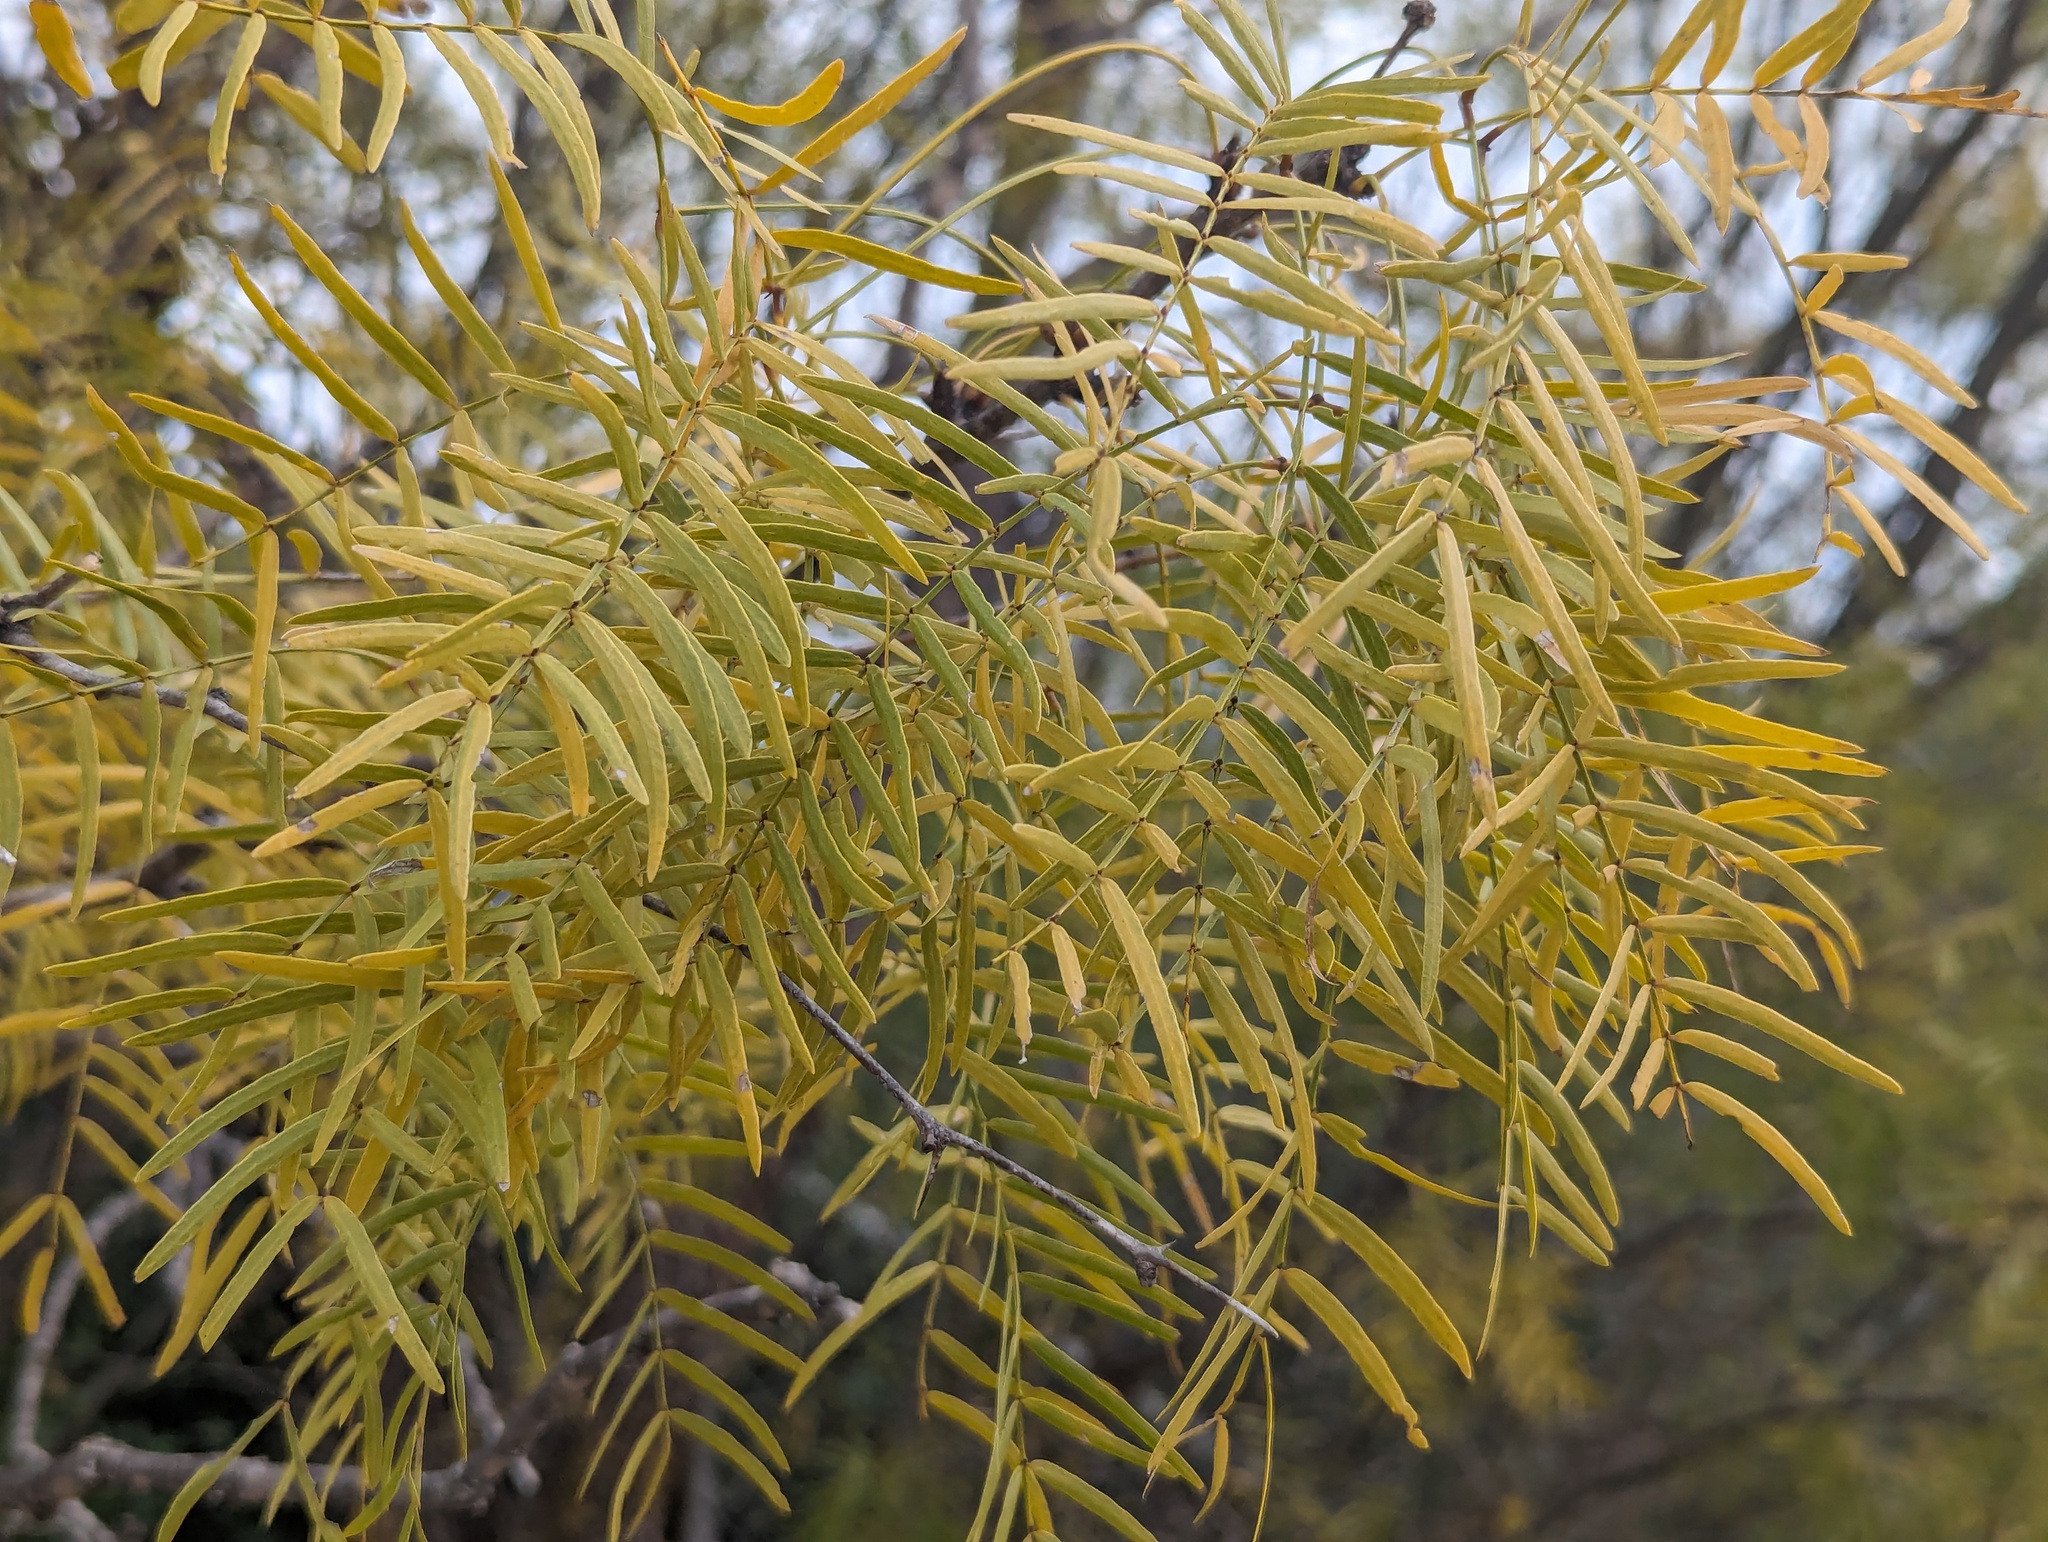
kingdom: Plantae
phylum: Tracheophyta
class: Magnoliopsida
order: Fabales
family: Fabaceae
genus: Prosopis
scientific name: Prosopis glandulosa
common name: Honey mesquite
